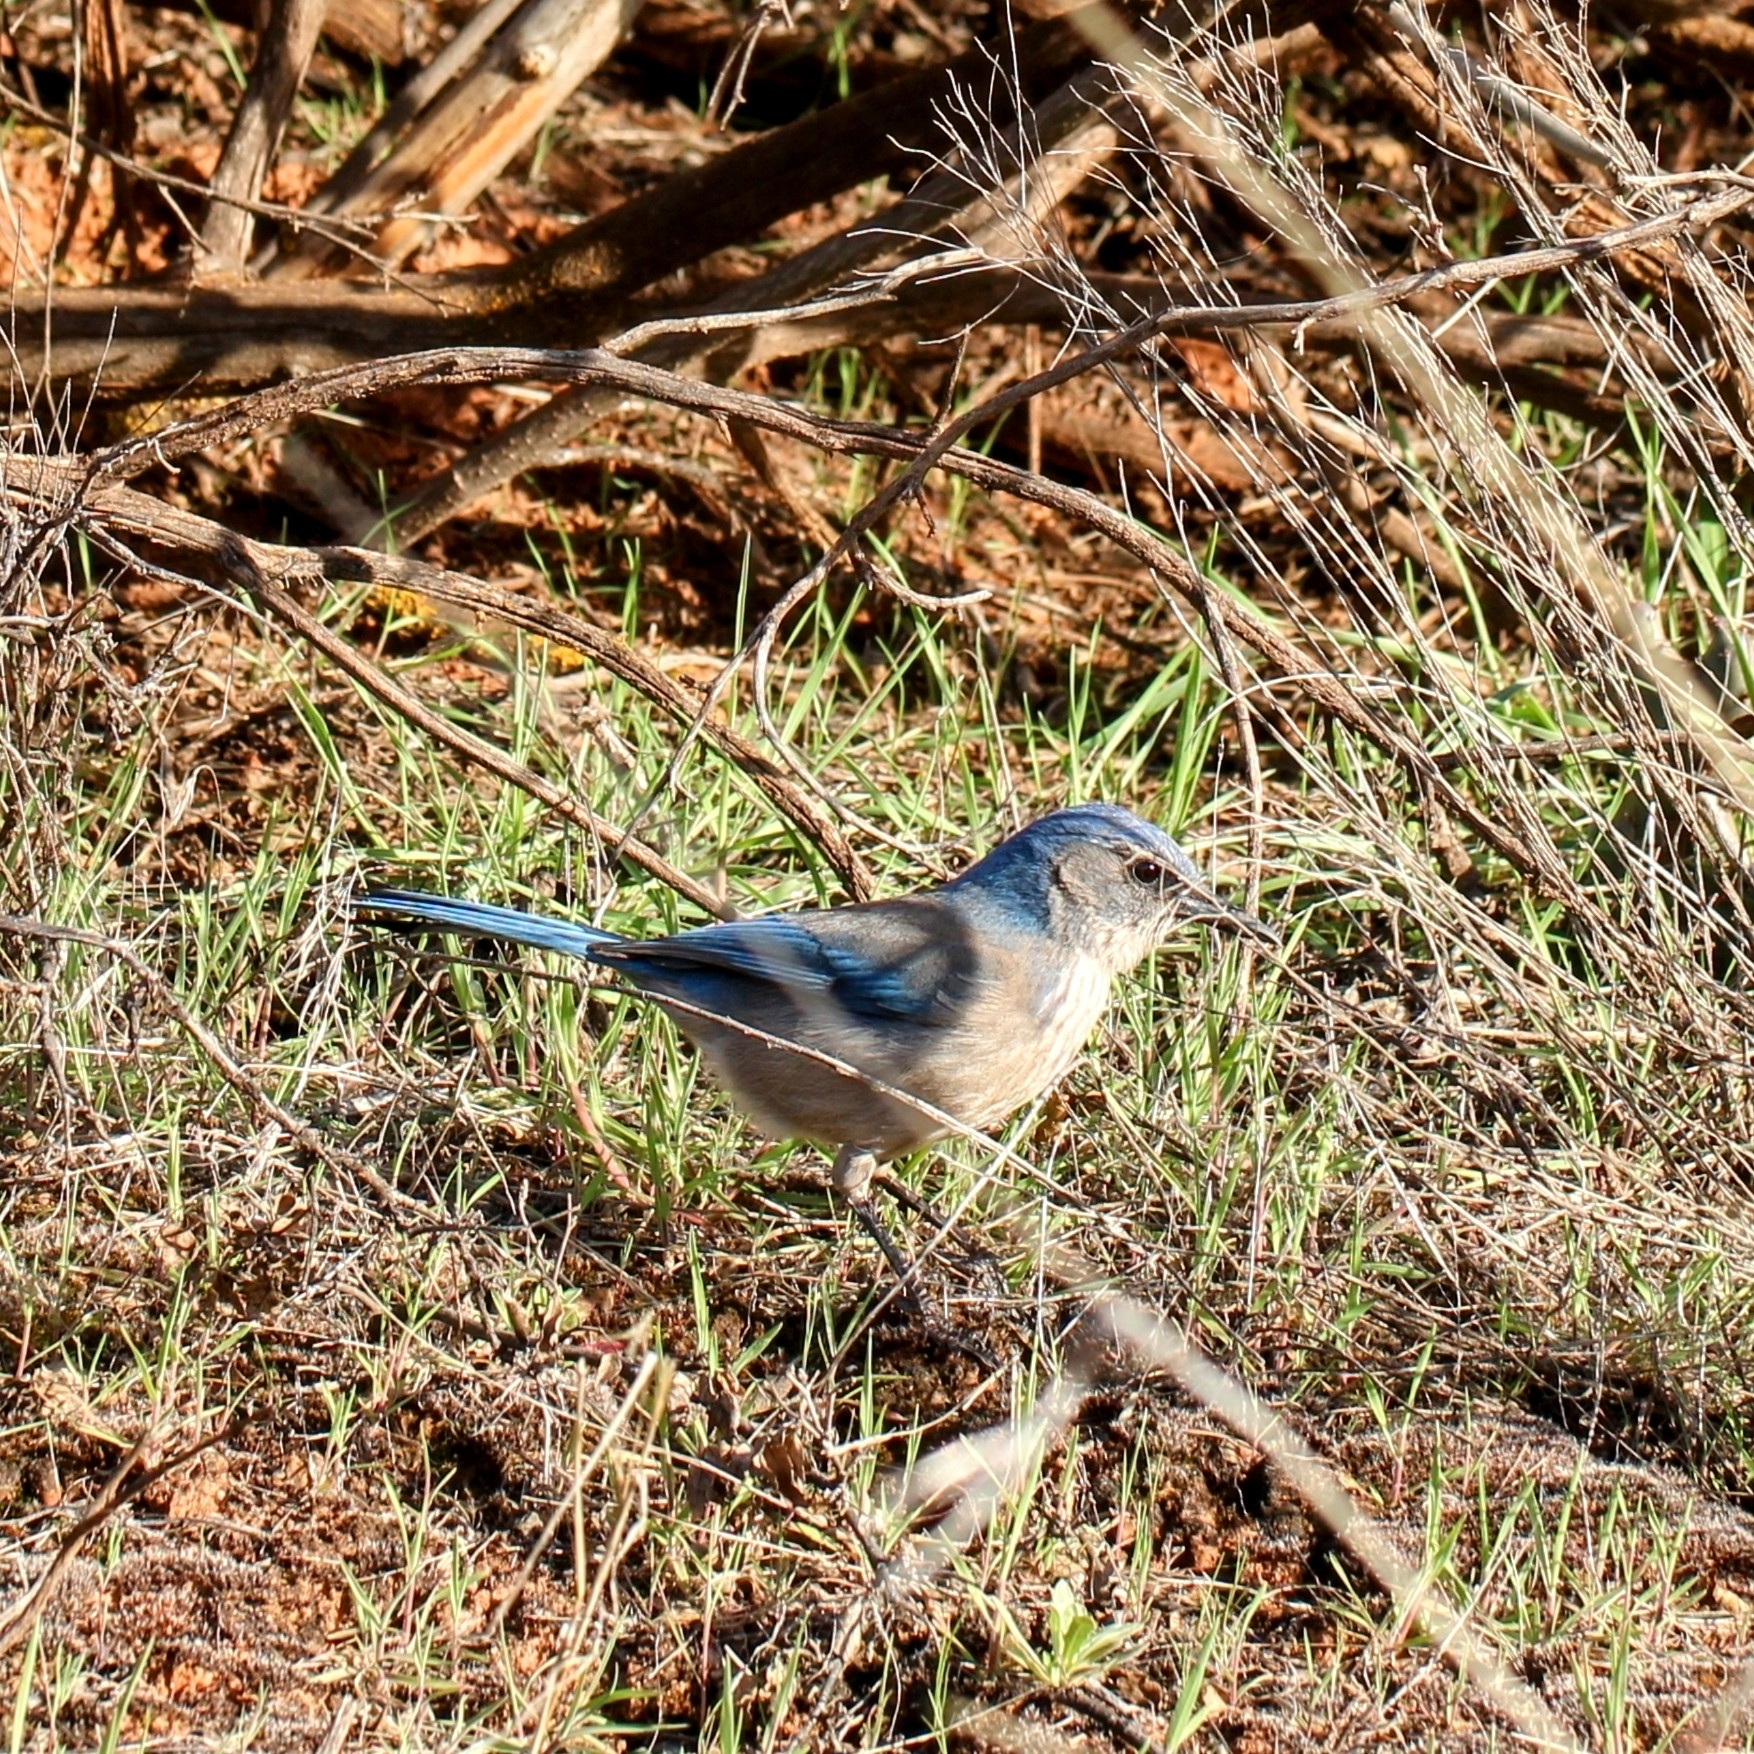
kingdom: Animalia
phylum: Chordata
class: Aves
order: Passeriformes
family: Corvidae
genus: Aphelocoma
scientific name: Aphelocoma woodhouseii
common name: Woodhouse's scrub-jay
